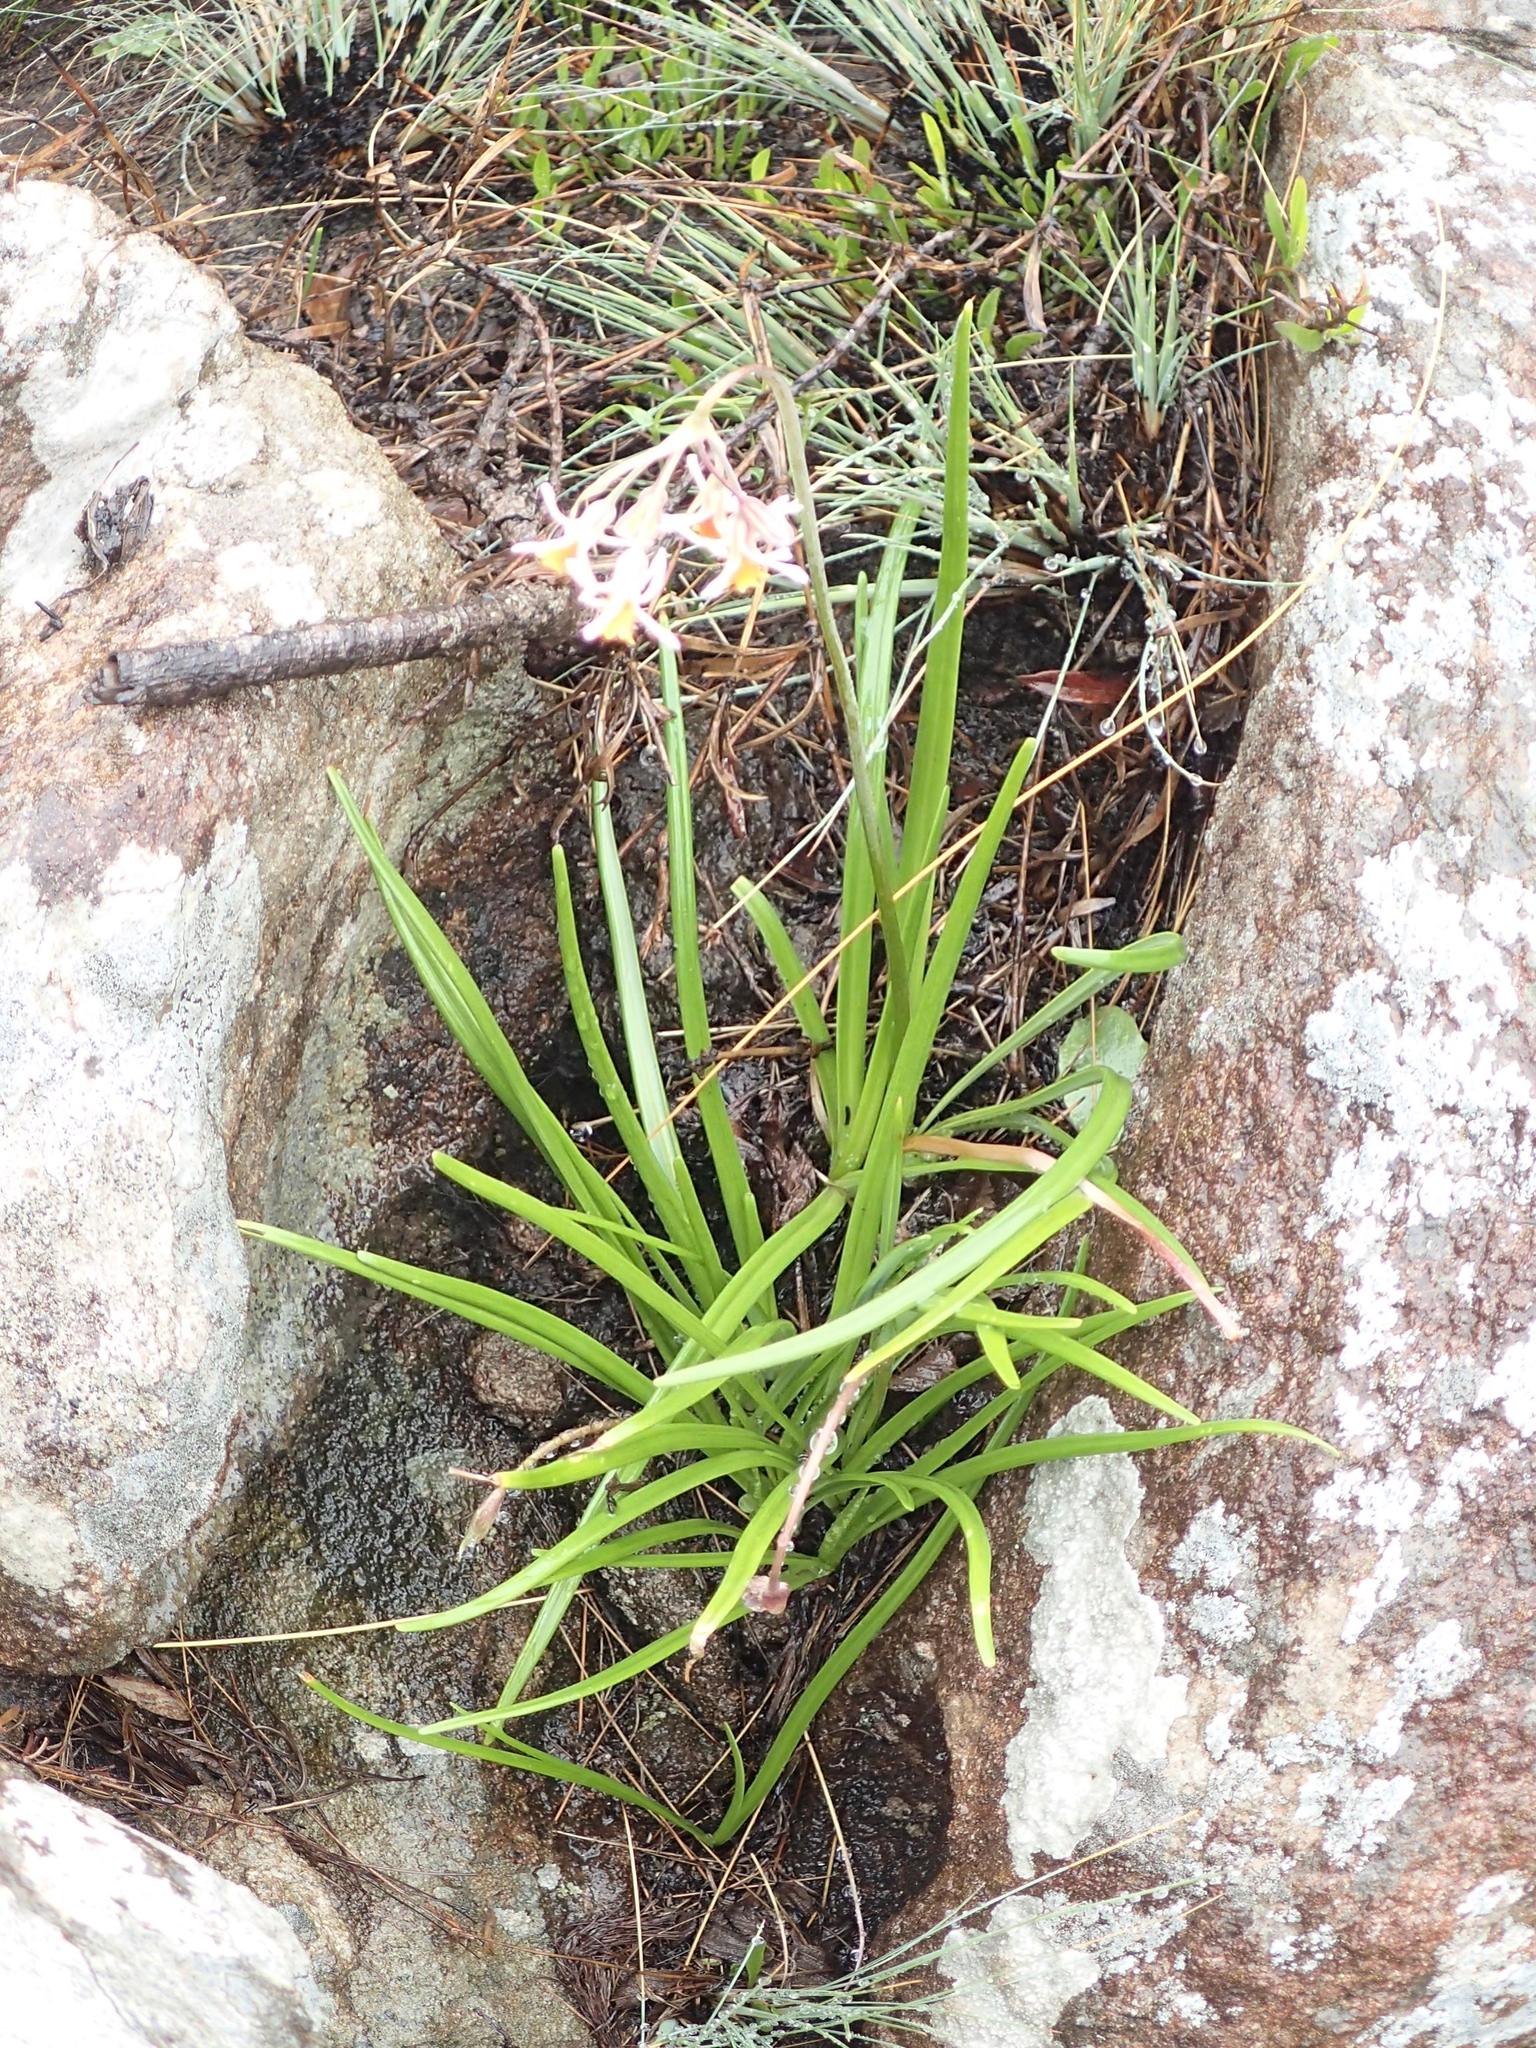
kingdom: Plantae
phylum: Tracheophyta
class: Liliopsida
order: Asparagales
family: Amaryllidaceae
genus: Tulbaghia
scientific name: Tulbaghia montana
